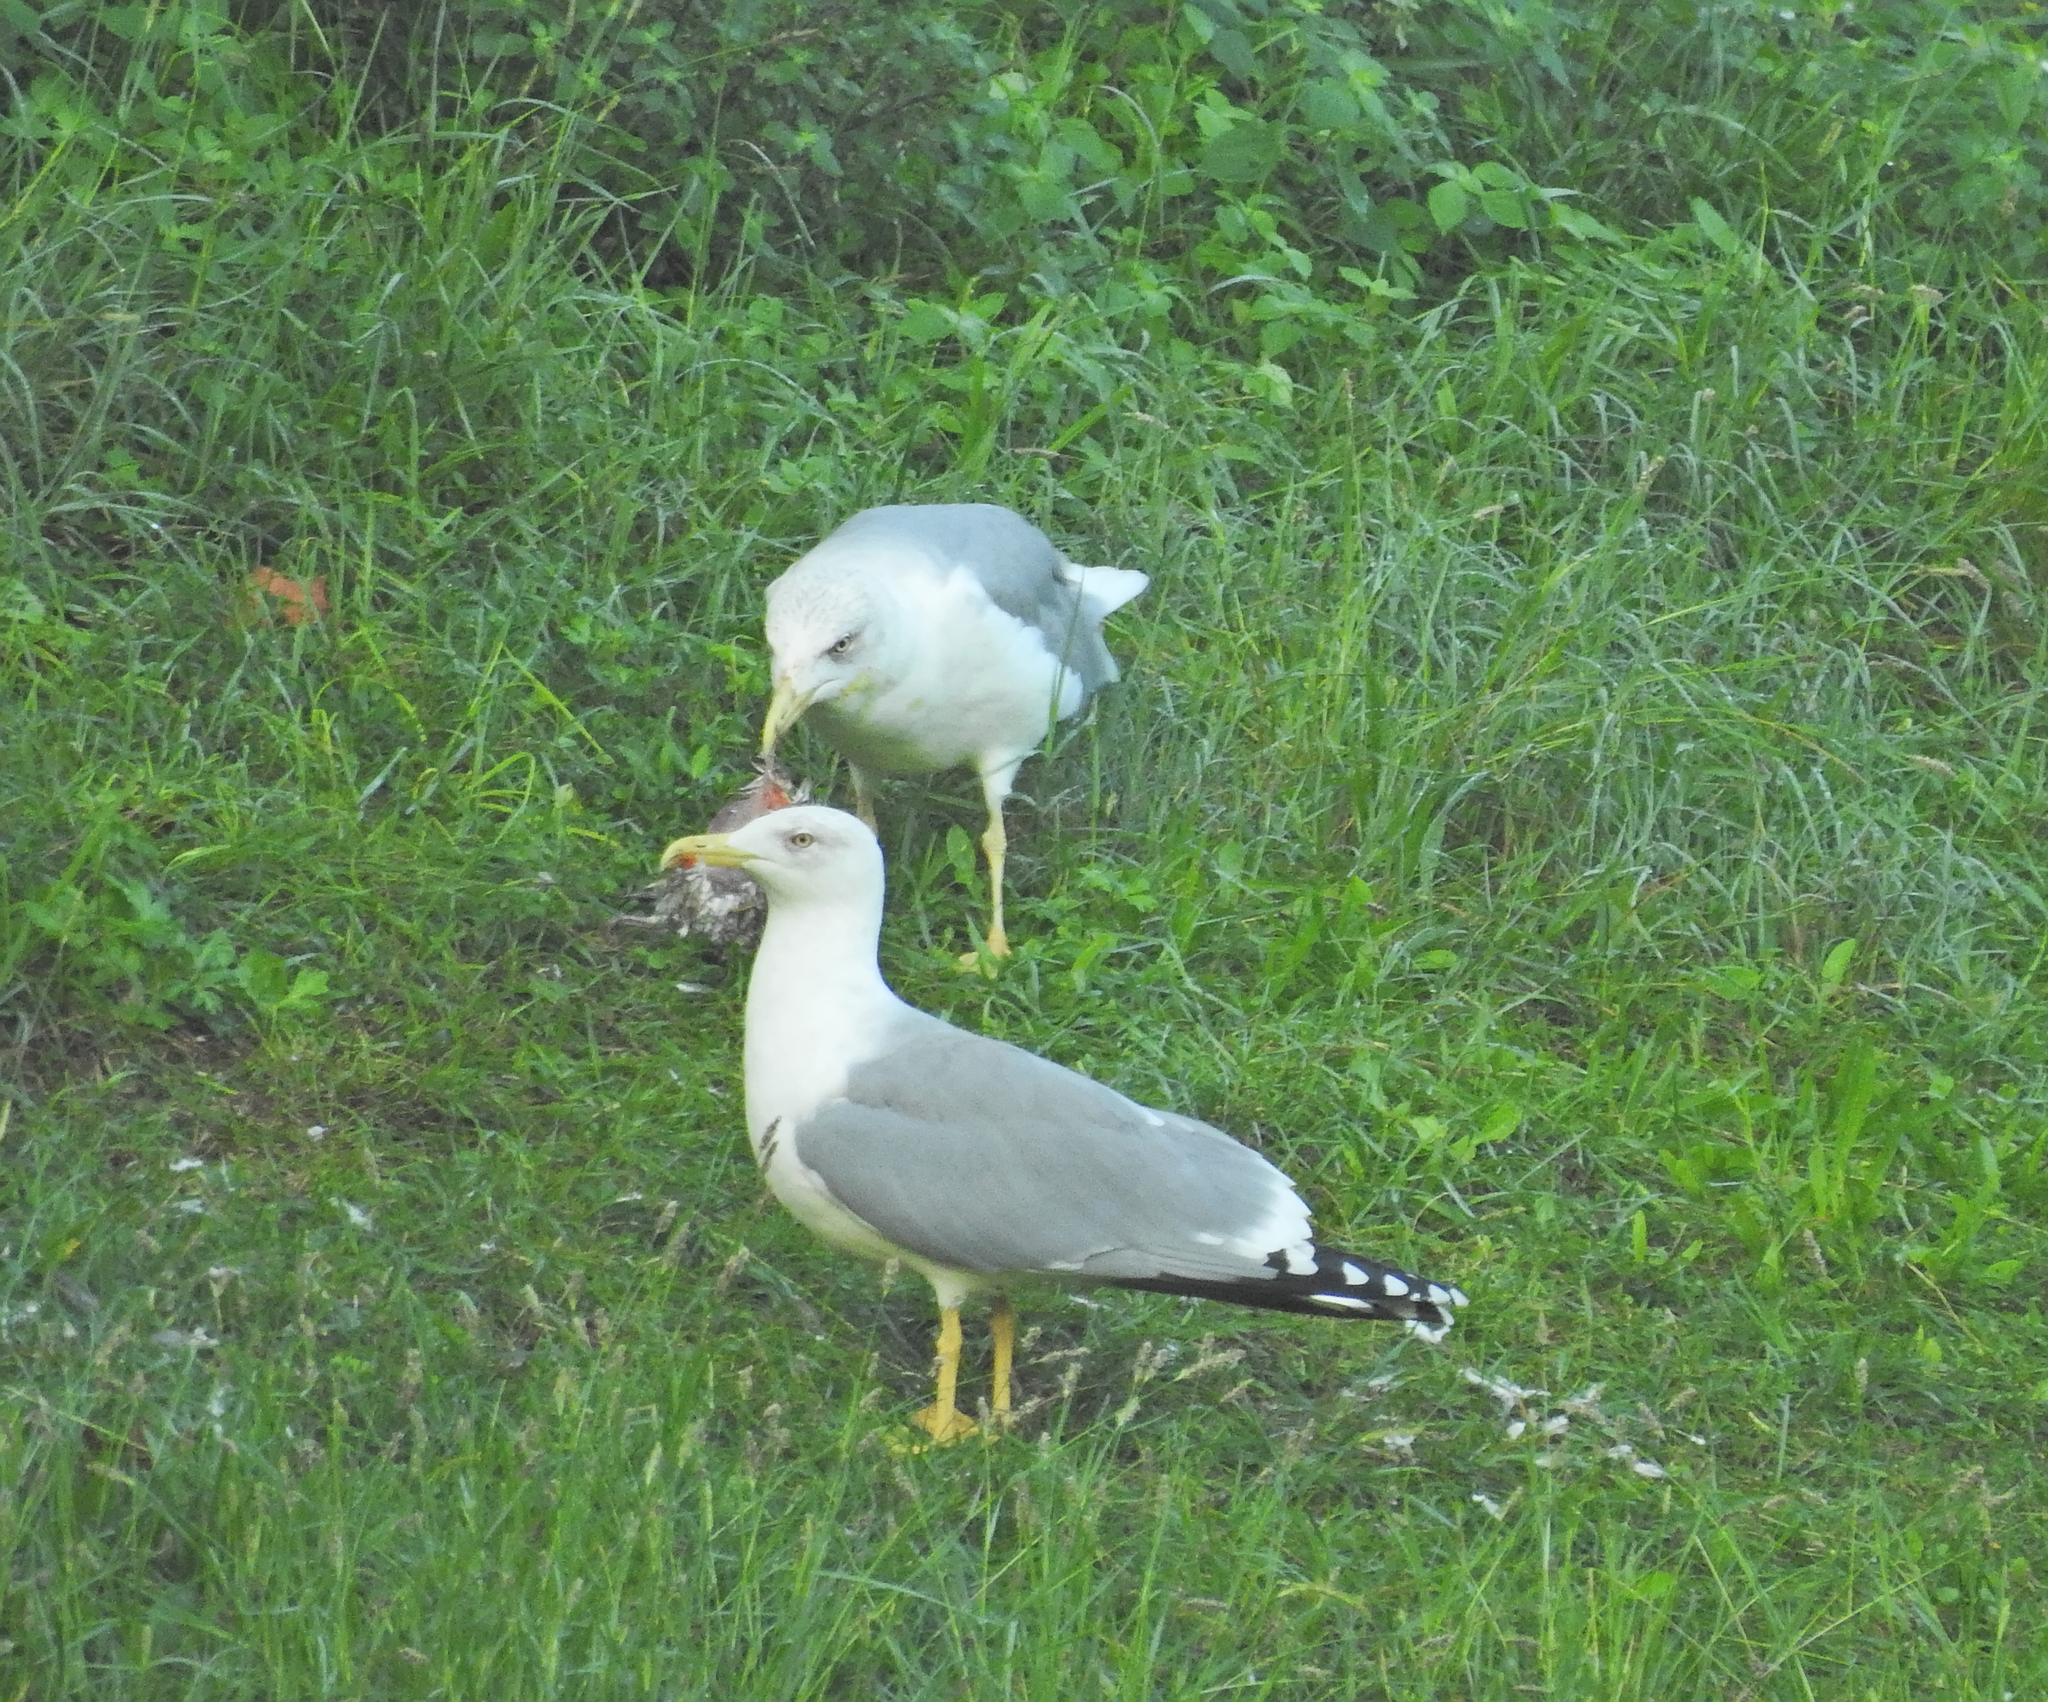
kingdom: Animalia
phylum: Chordata
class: Aves
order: Charadriiformes
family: Laridae
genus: Larus
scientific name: Larus michahellis
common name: Yellow-legged gull
